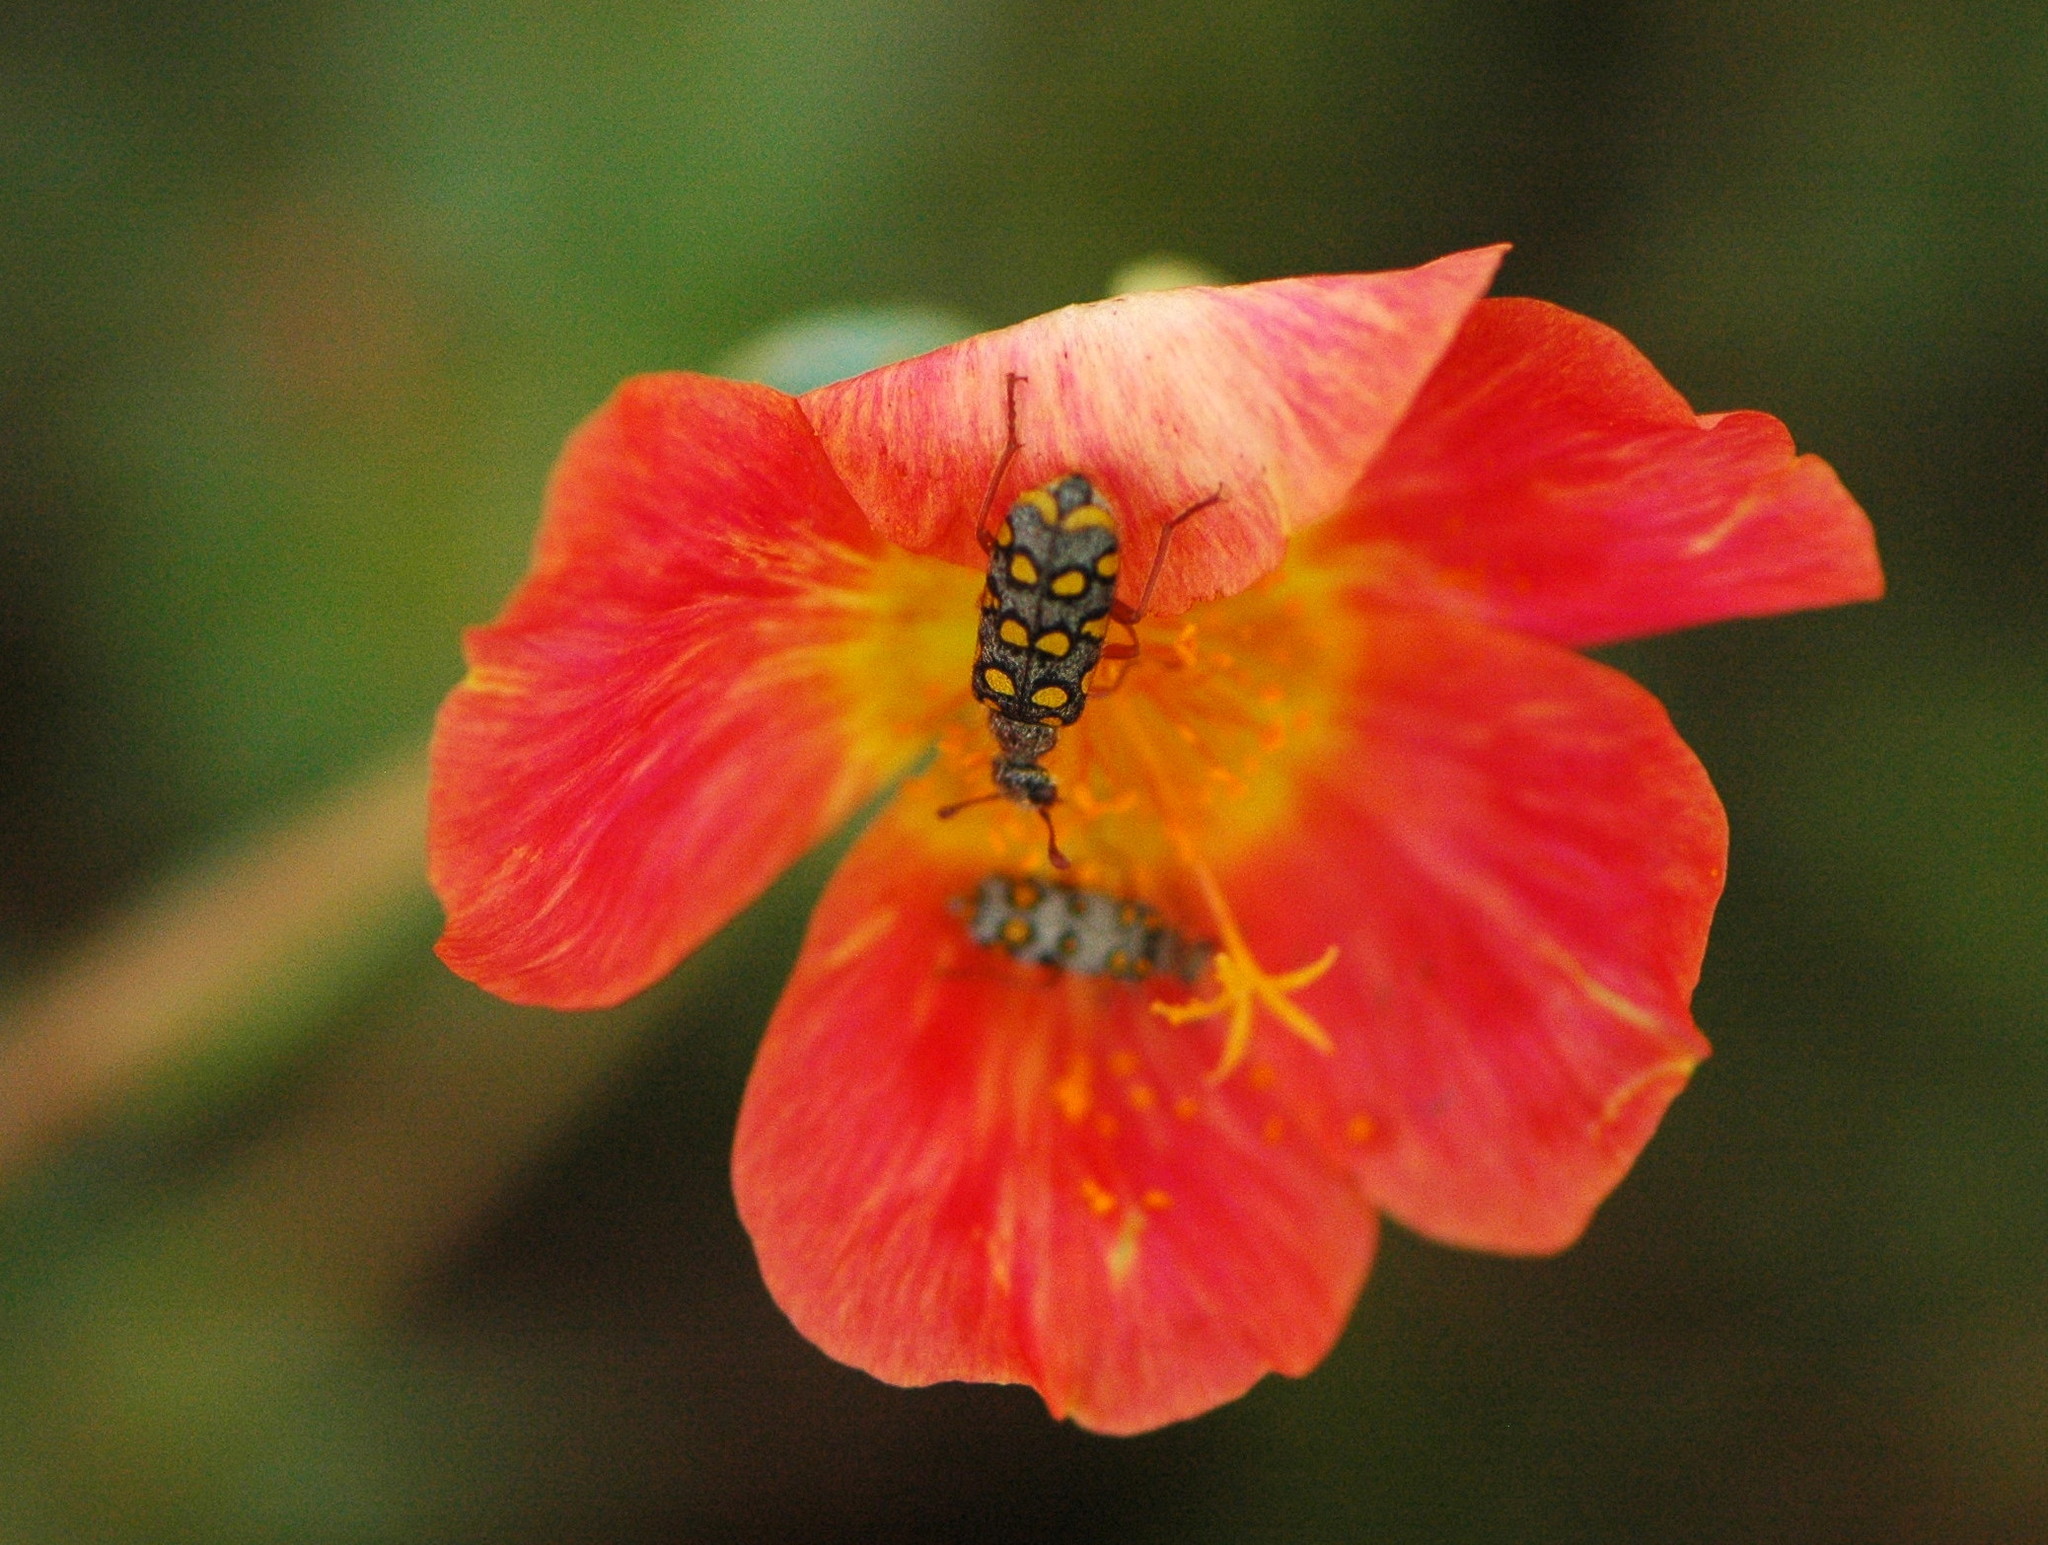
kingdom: Animalia
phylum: Arthropoda
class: Insecta
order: Coleoptera
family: Meloidae
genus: Mylabris
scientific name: Mylabris argentata
